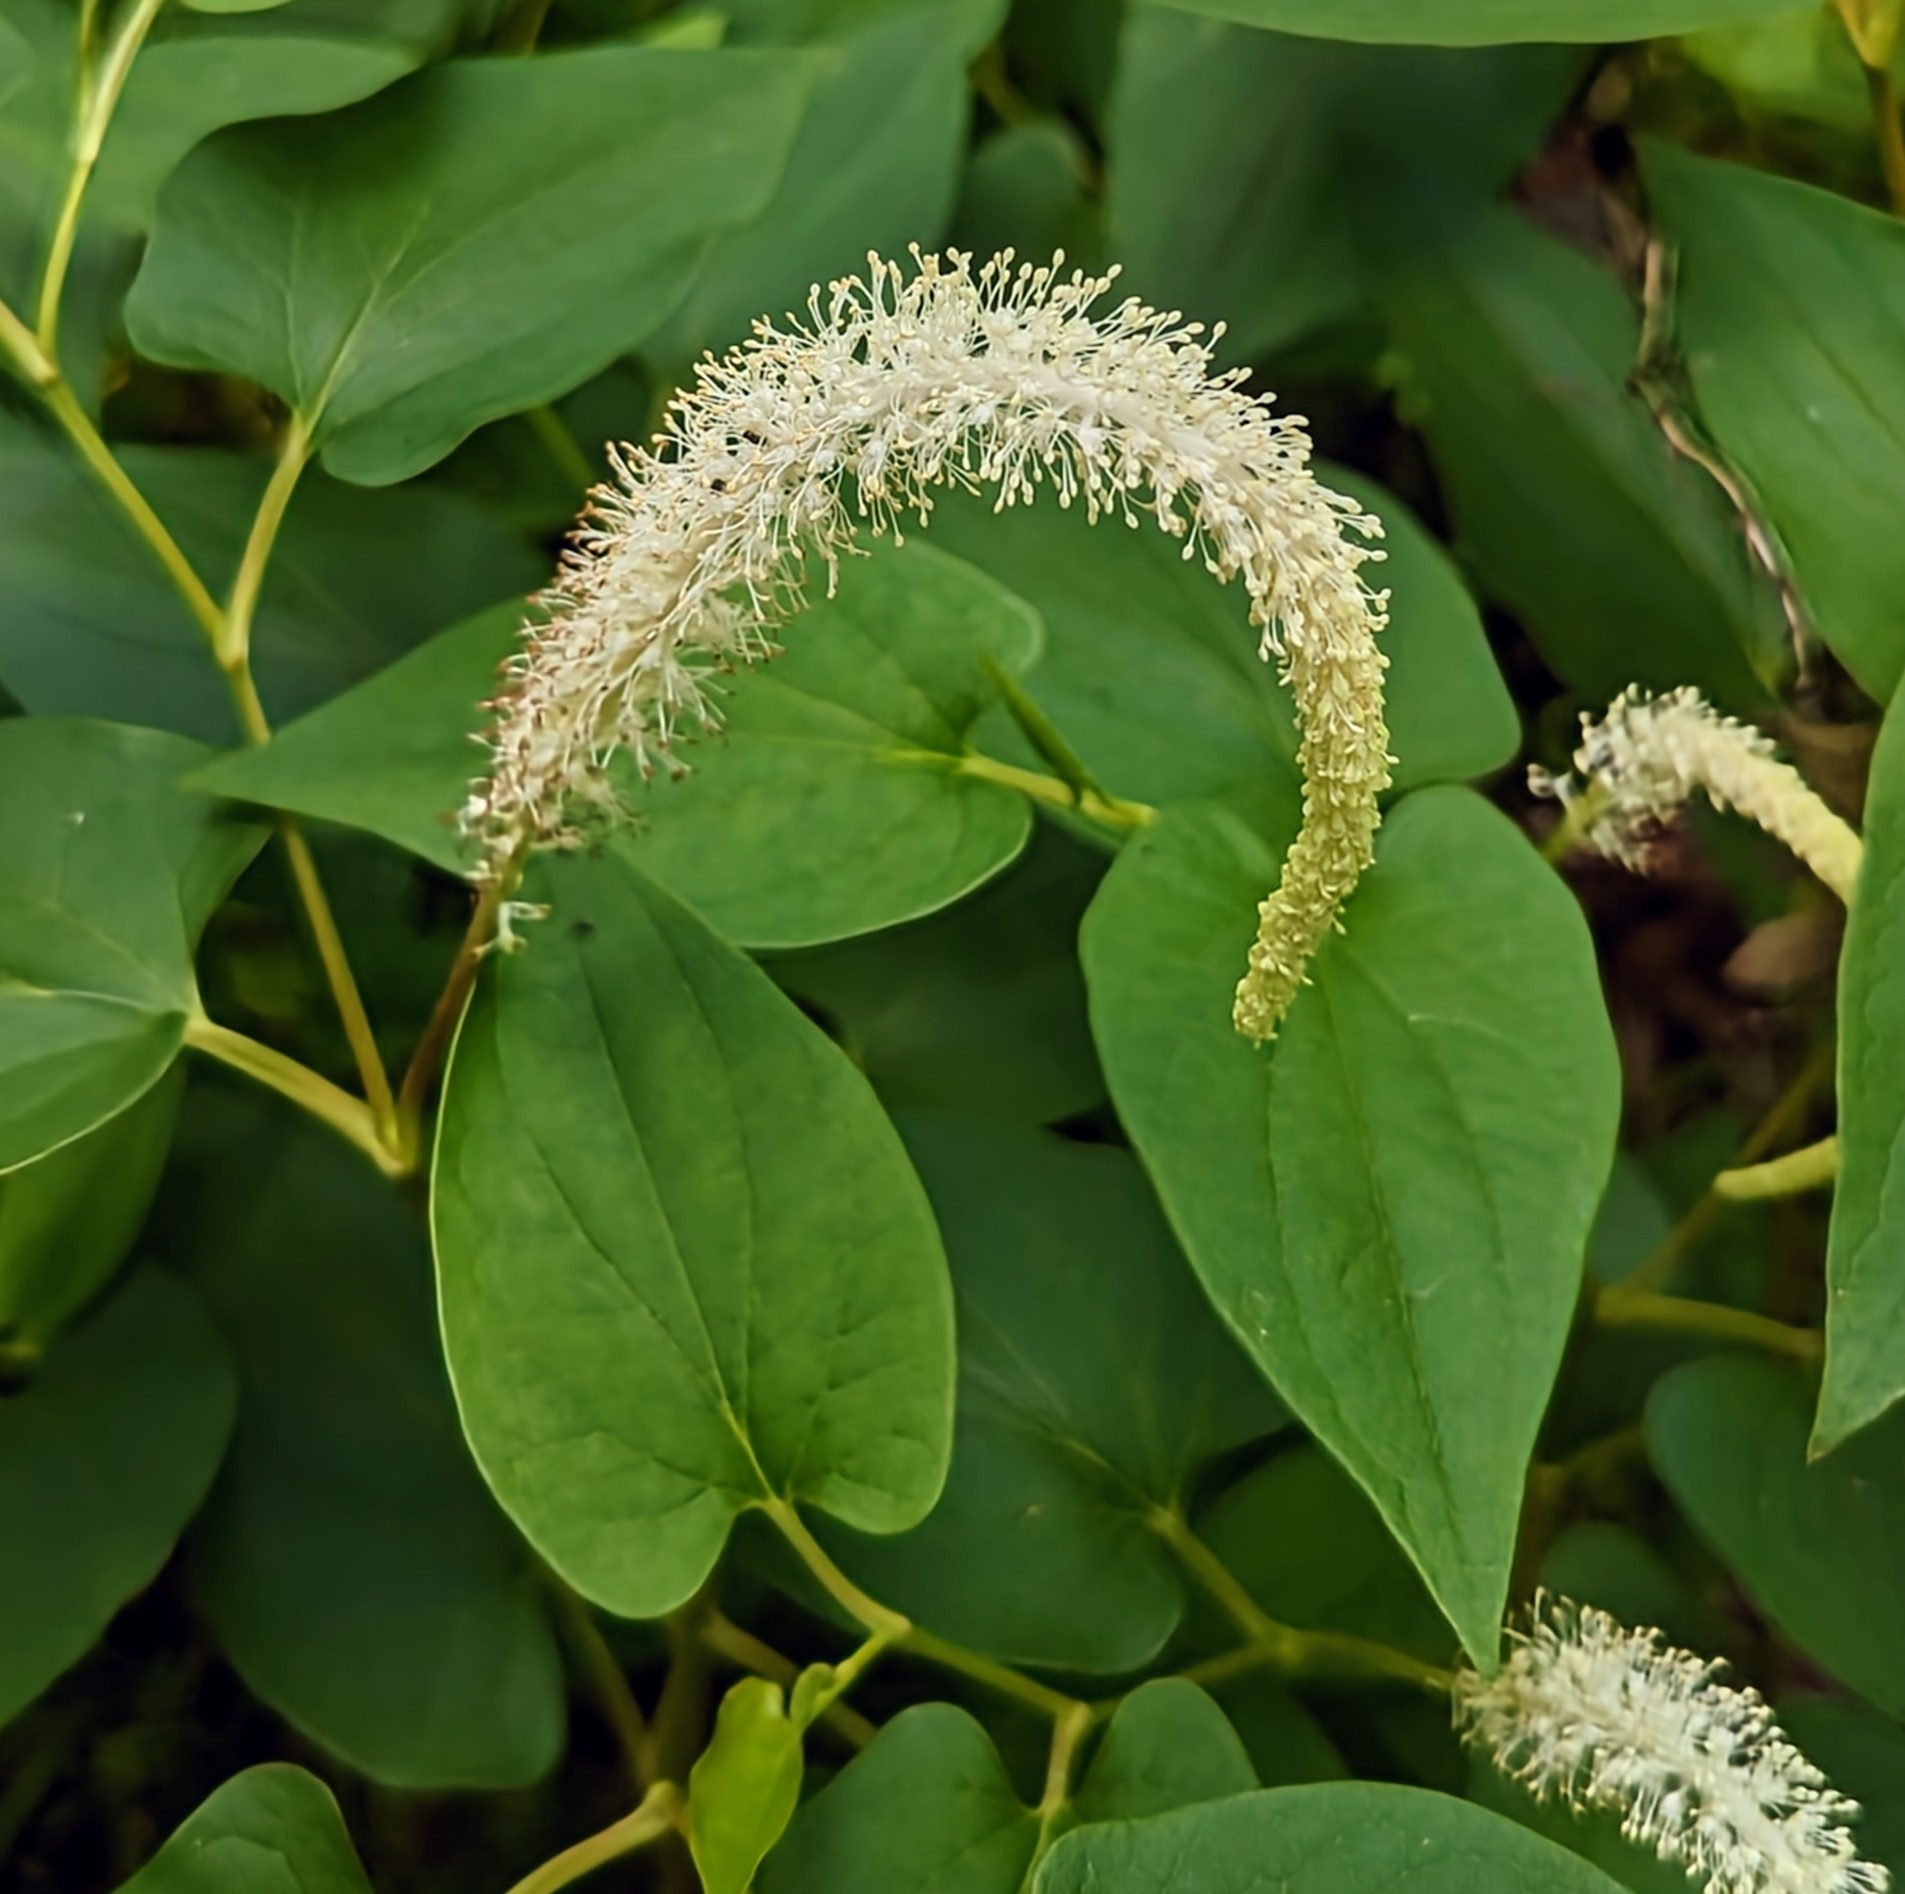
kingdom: Plantae
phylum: Tracheophyta
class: Magnoliopsida
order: Piperales
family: Saururaceae
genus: Saururus
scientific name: Saururus cernuus
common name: Lizard's-tail
